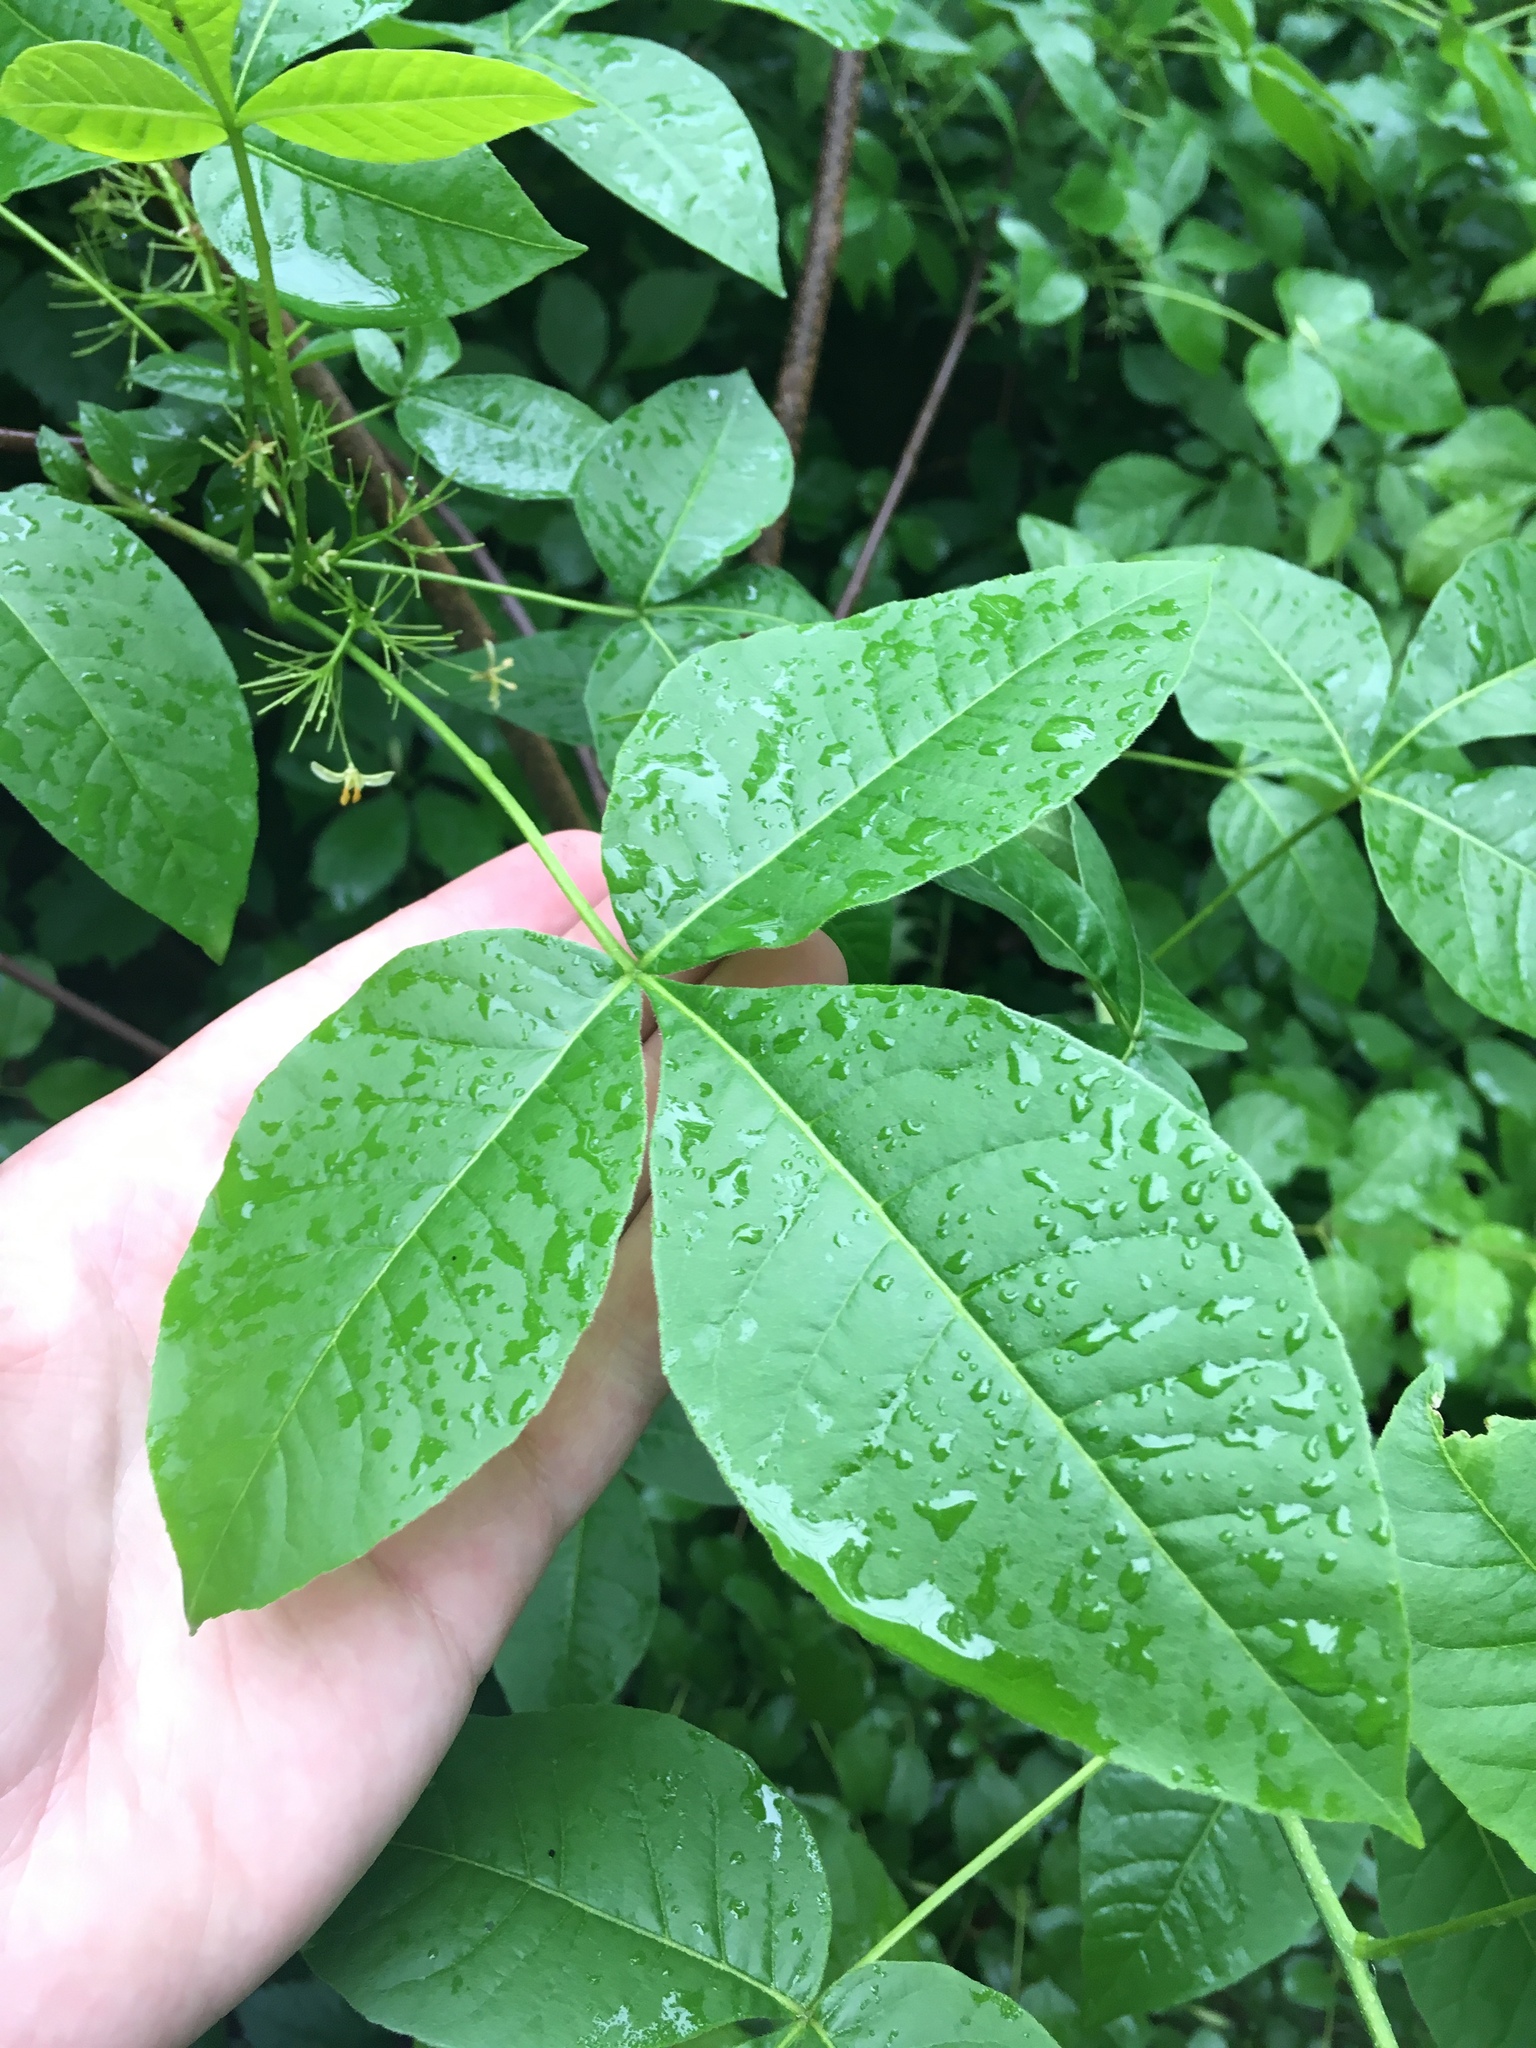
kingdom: Plantae
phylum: Tracheophyta
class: Magnoliopsida
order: Sapindales
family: Rutaceae
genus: Ptelea
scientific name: Ptelea trifoliata
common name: Common hop-tree
